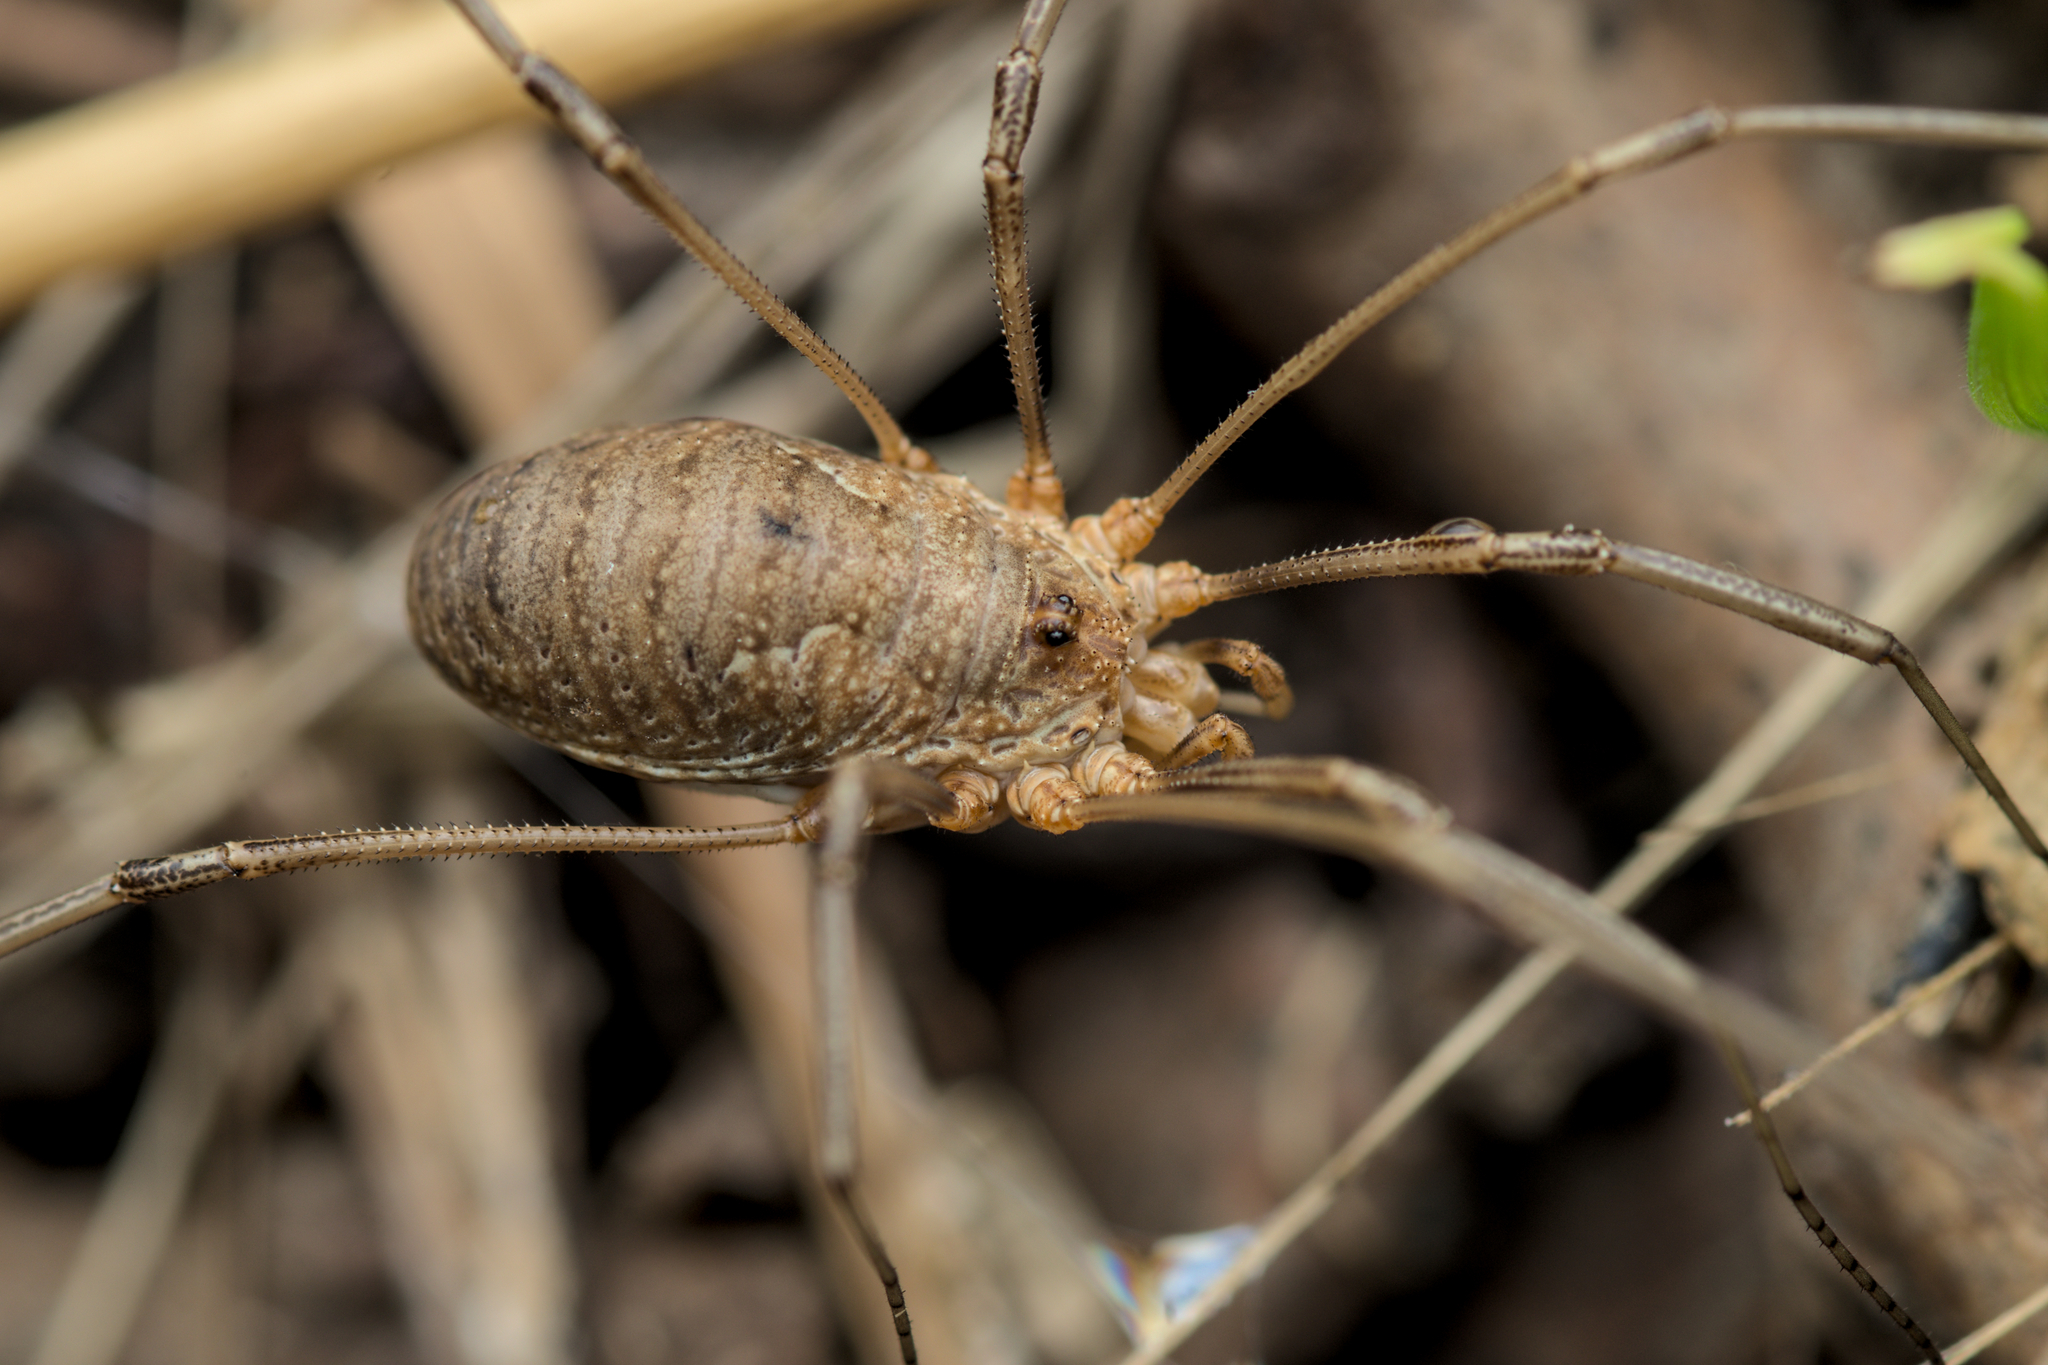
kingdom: Animalia
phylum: Arthropoda
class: Arachnida
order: Opiliones
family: Phalangiidae
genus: Phalangium
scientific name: Phalangium opilio
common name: Daddy longleg
